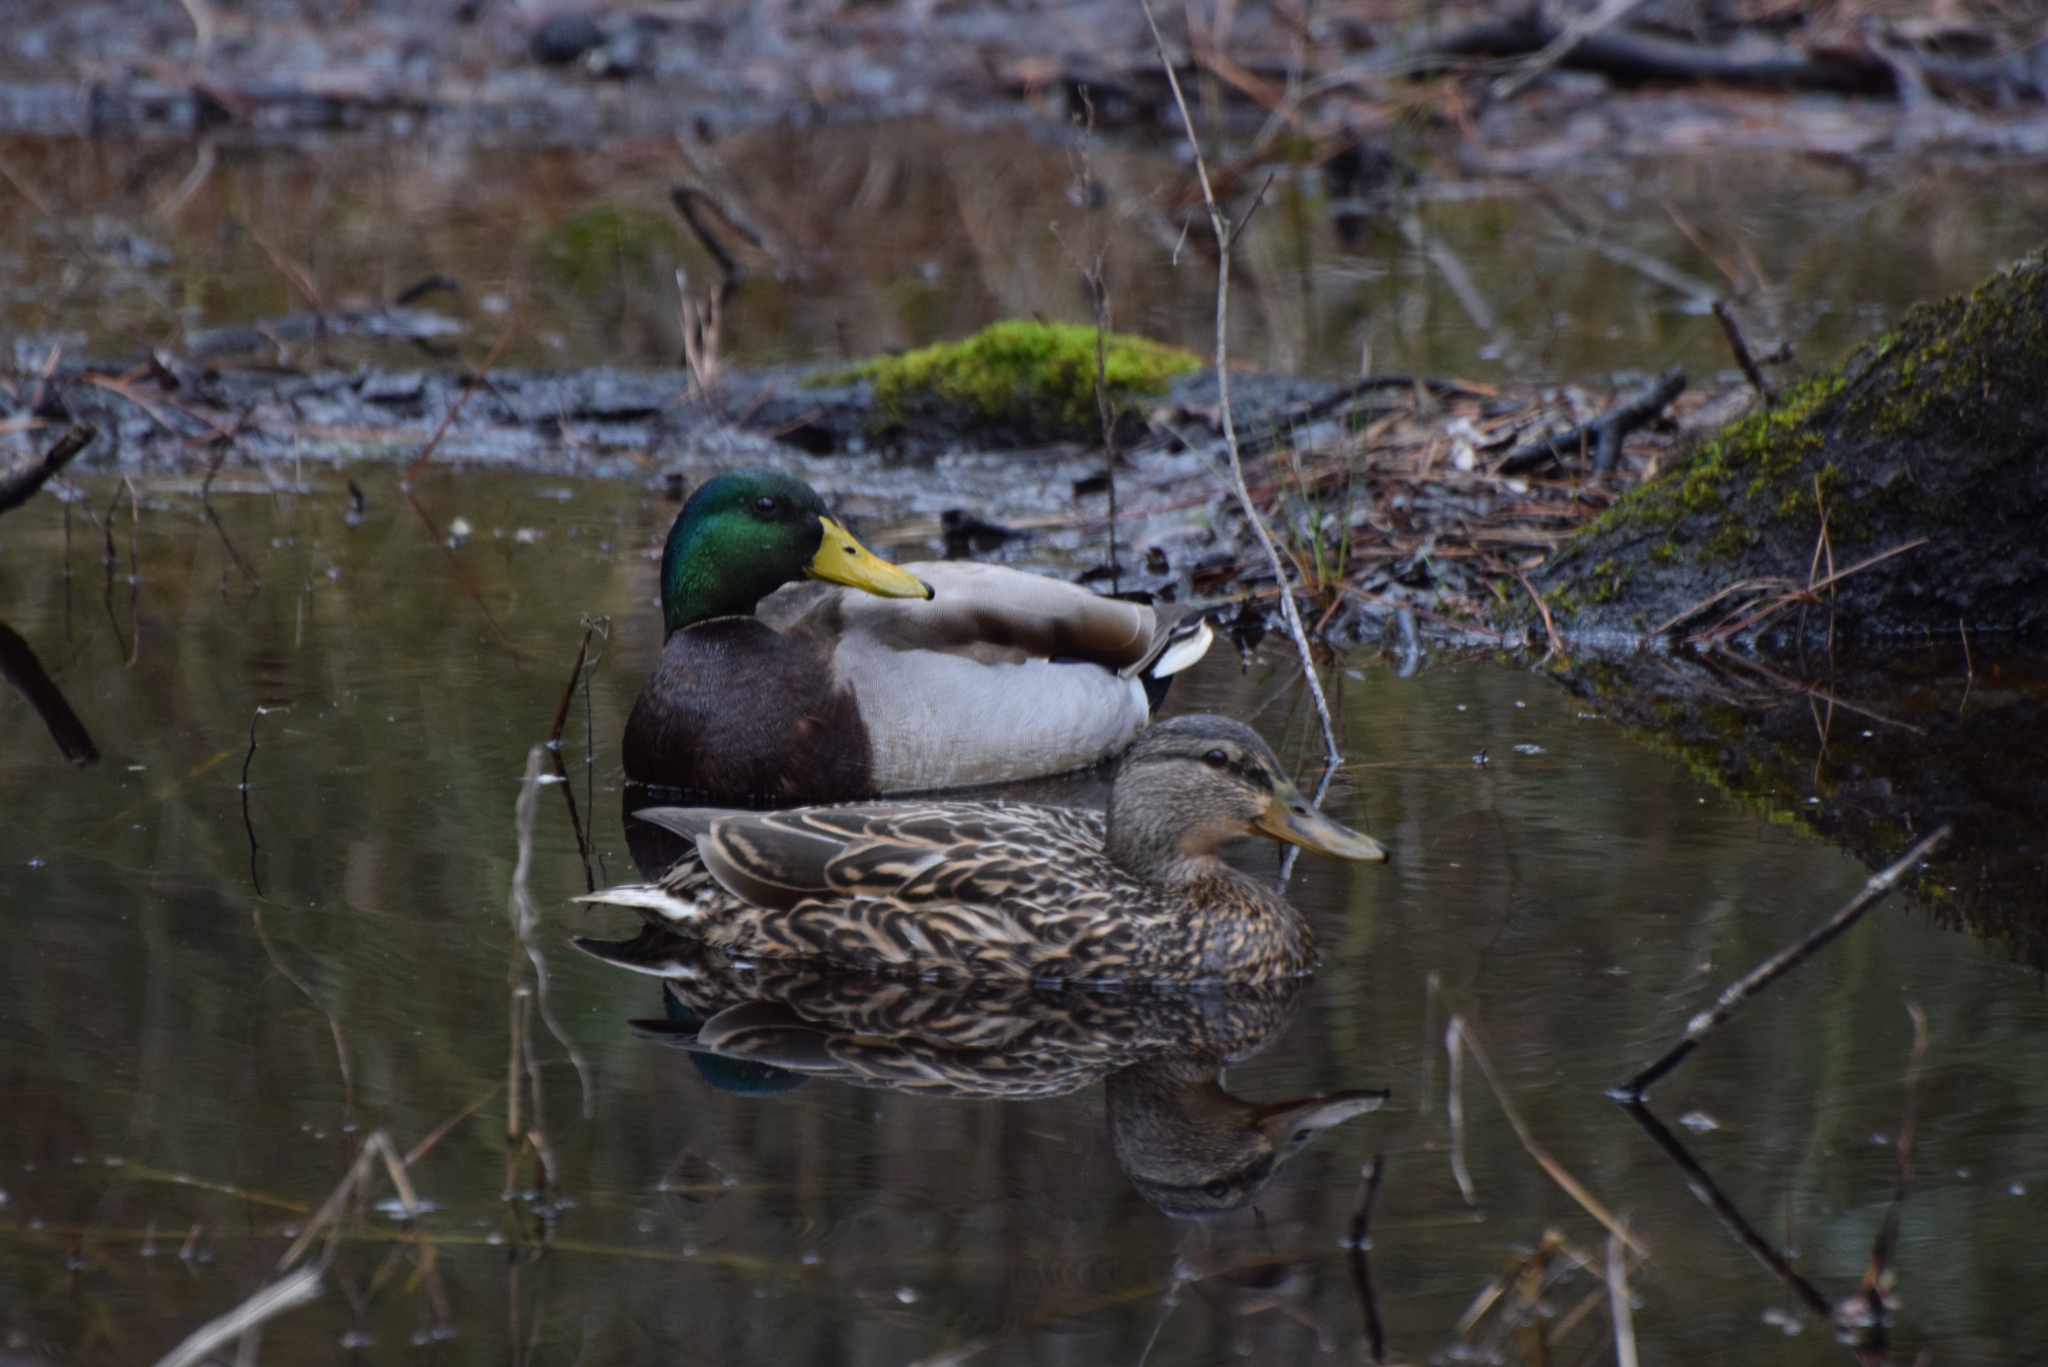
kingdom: Animalia
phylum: Chordata
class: Aves
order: Anseriformes
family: Anatidae
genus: Anas
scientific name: Anas platyrhynchos
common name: Mallard
